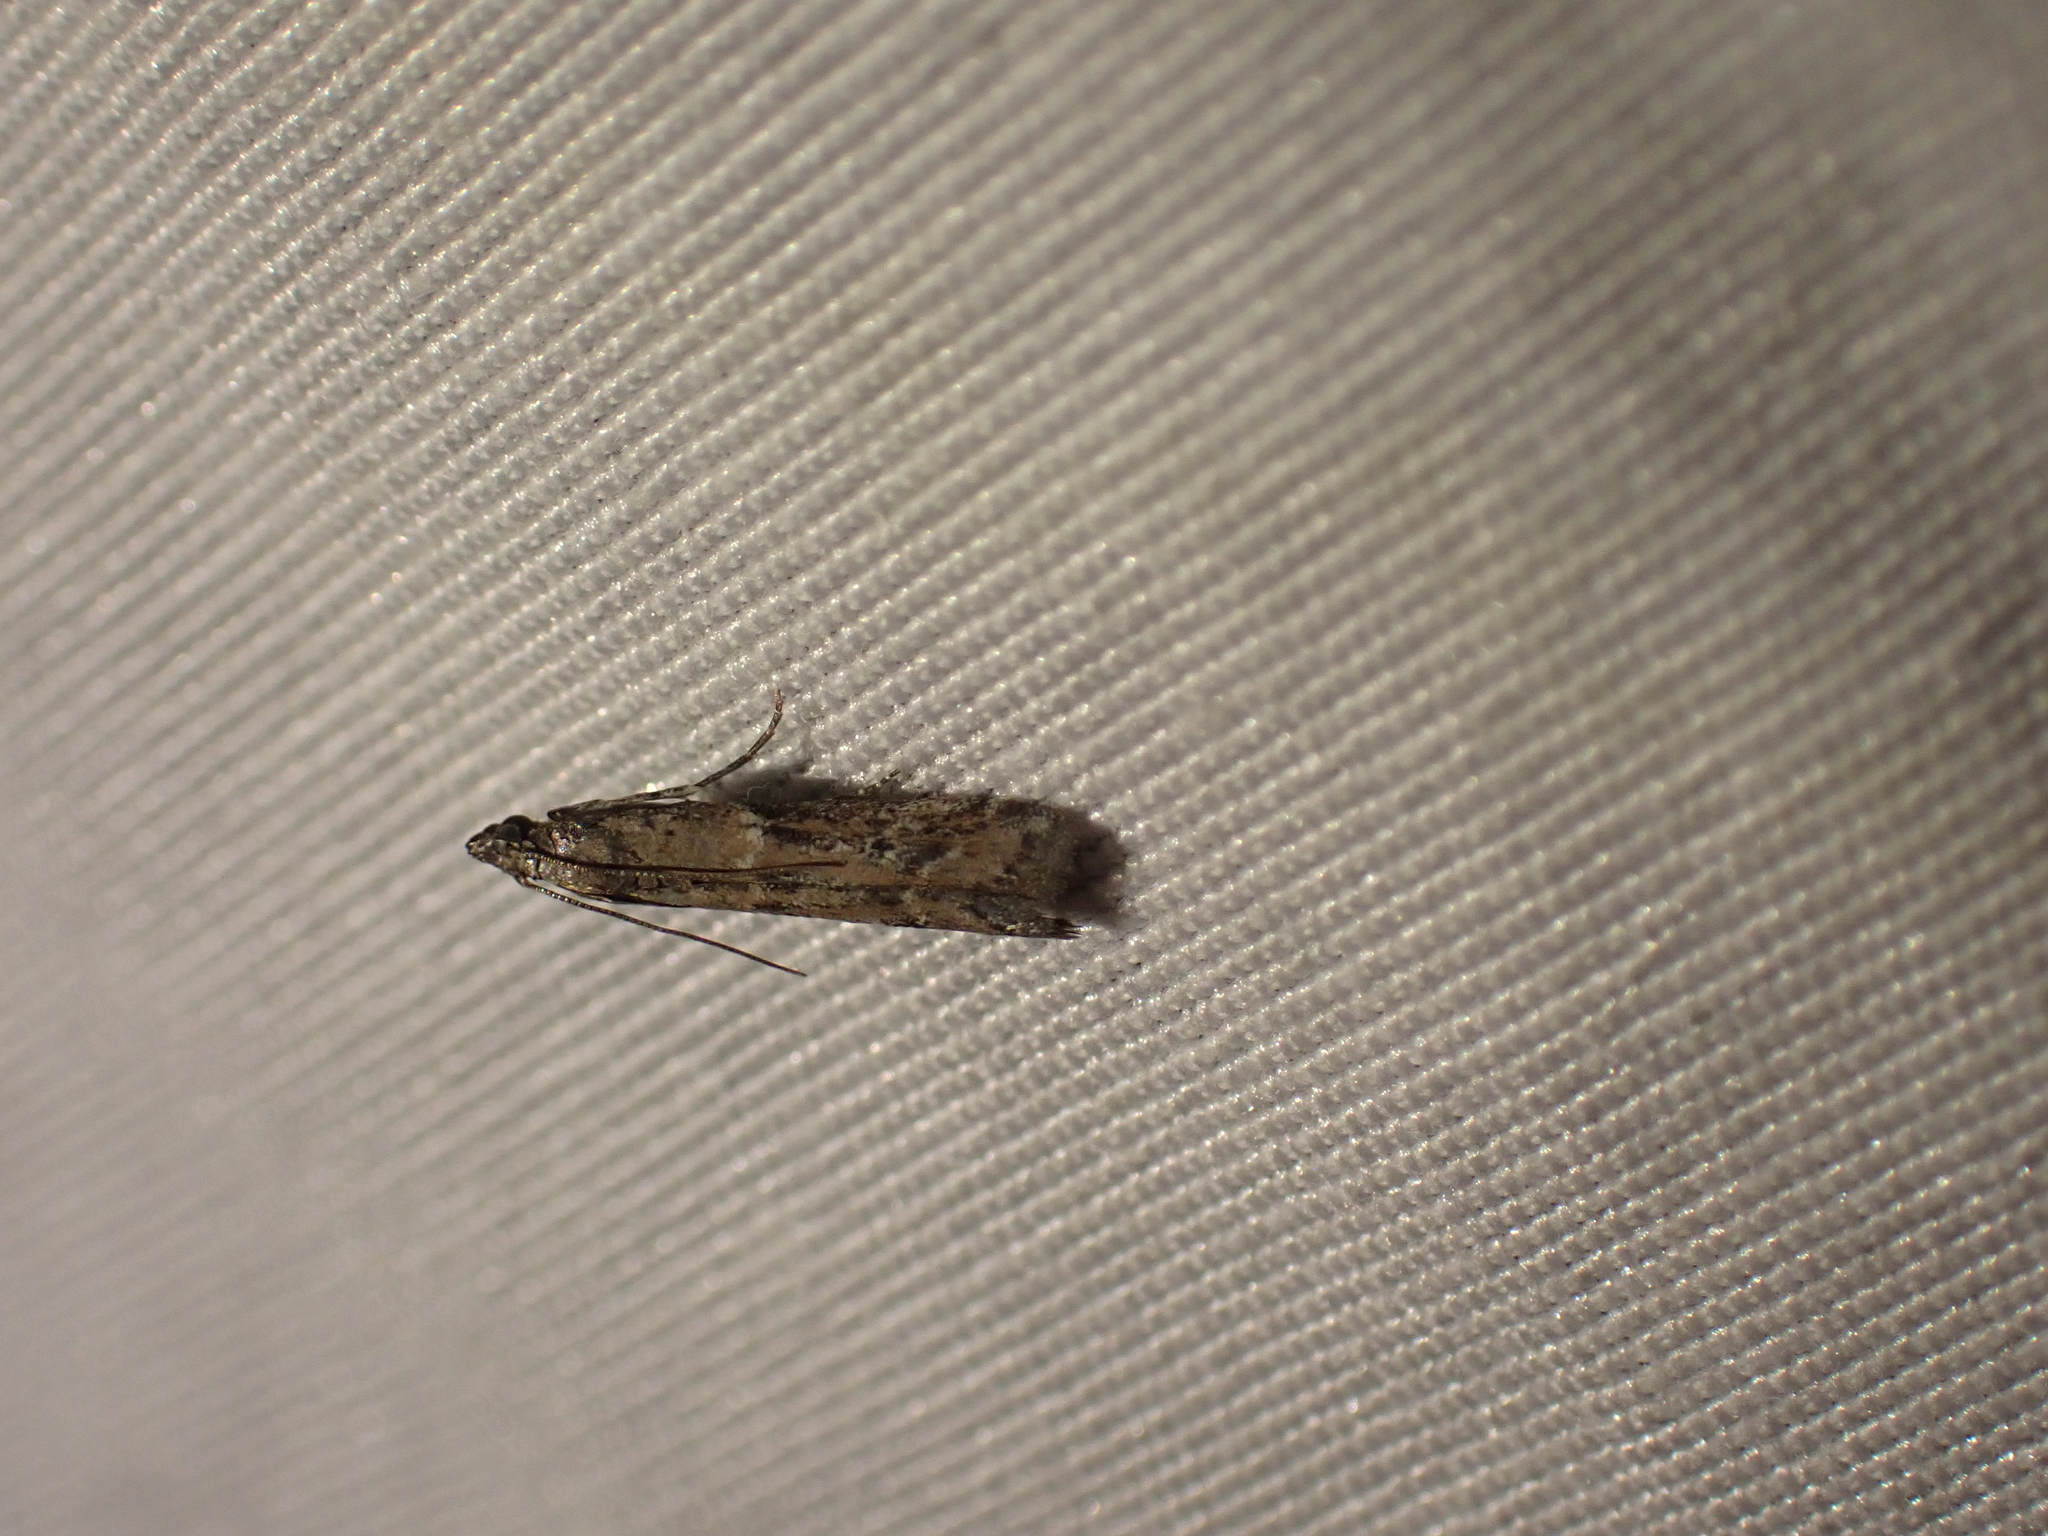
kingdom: Animalia
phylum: Arthropoda
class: Insecta
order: Lepidoptera
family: Pyralidae
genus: Ephestiodes
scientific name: Ephestiodes gilvescentella
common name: Moth
